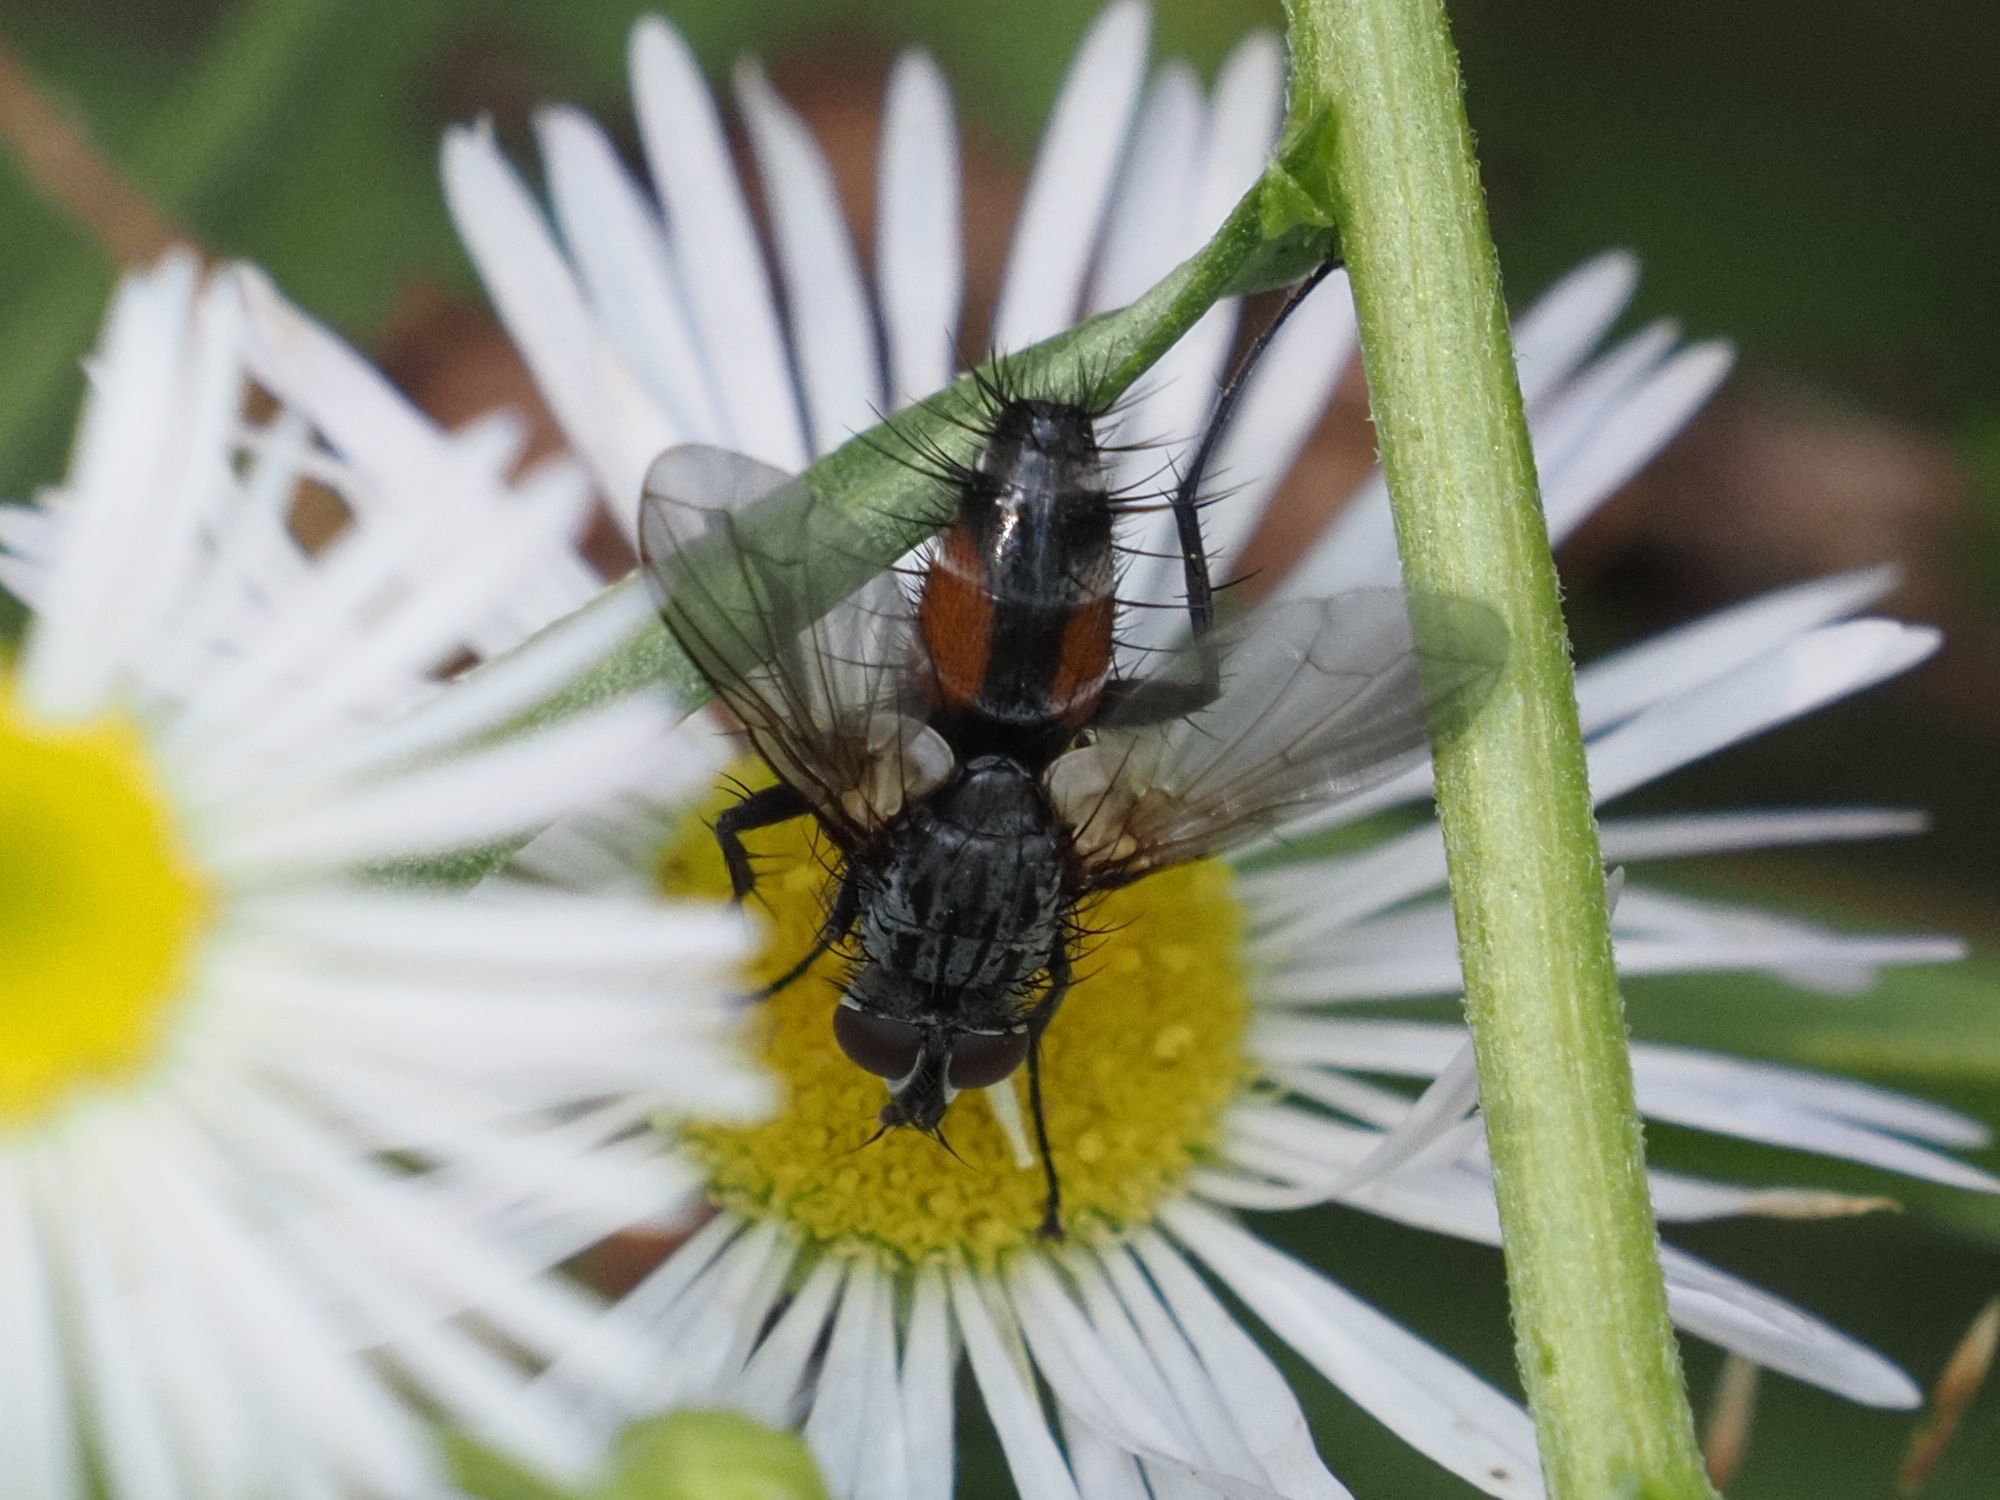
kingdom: Animalia
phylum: Arthropoda
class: Insecta
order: Diptera
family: Tachinidae
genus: Eriothrix
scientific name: Eriothrix rufomaculatus
